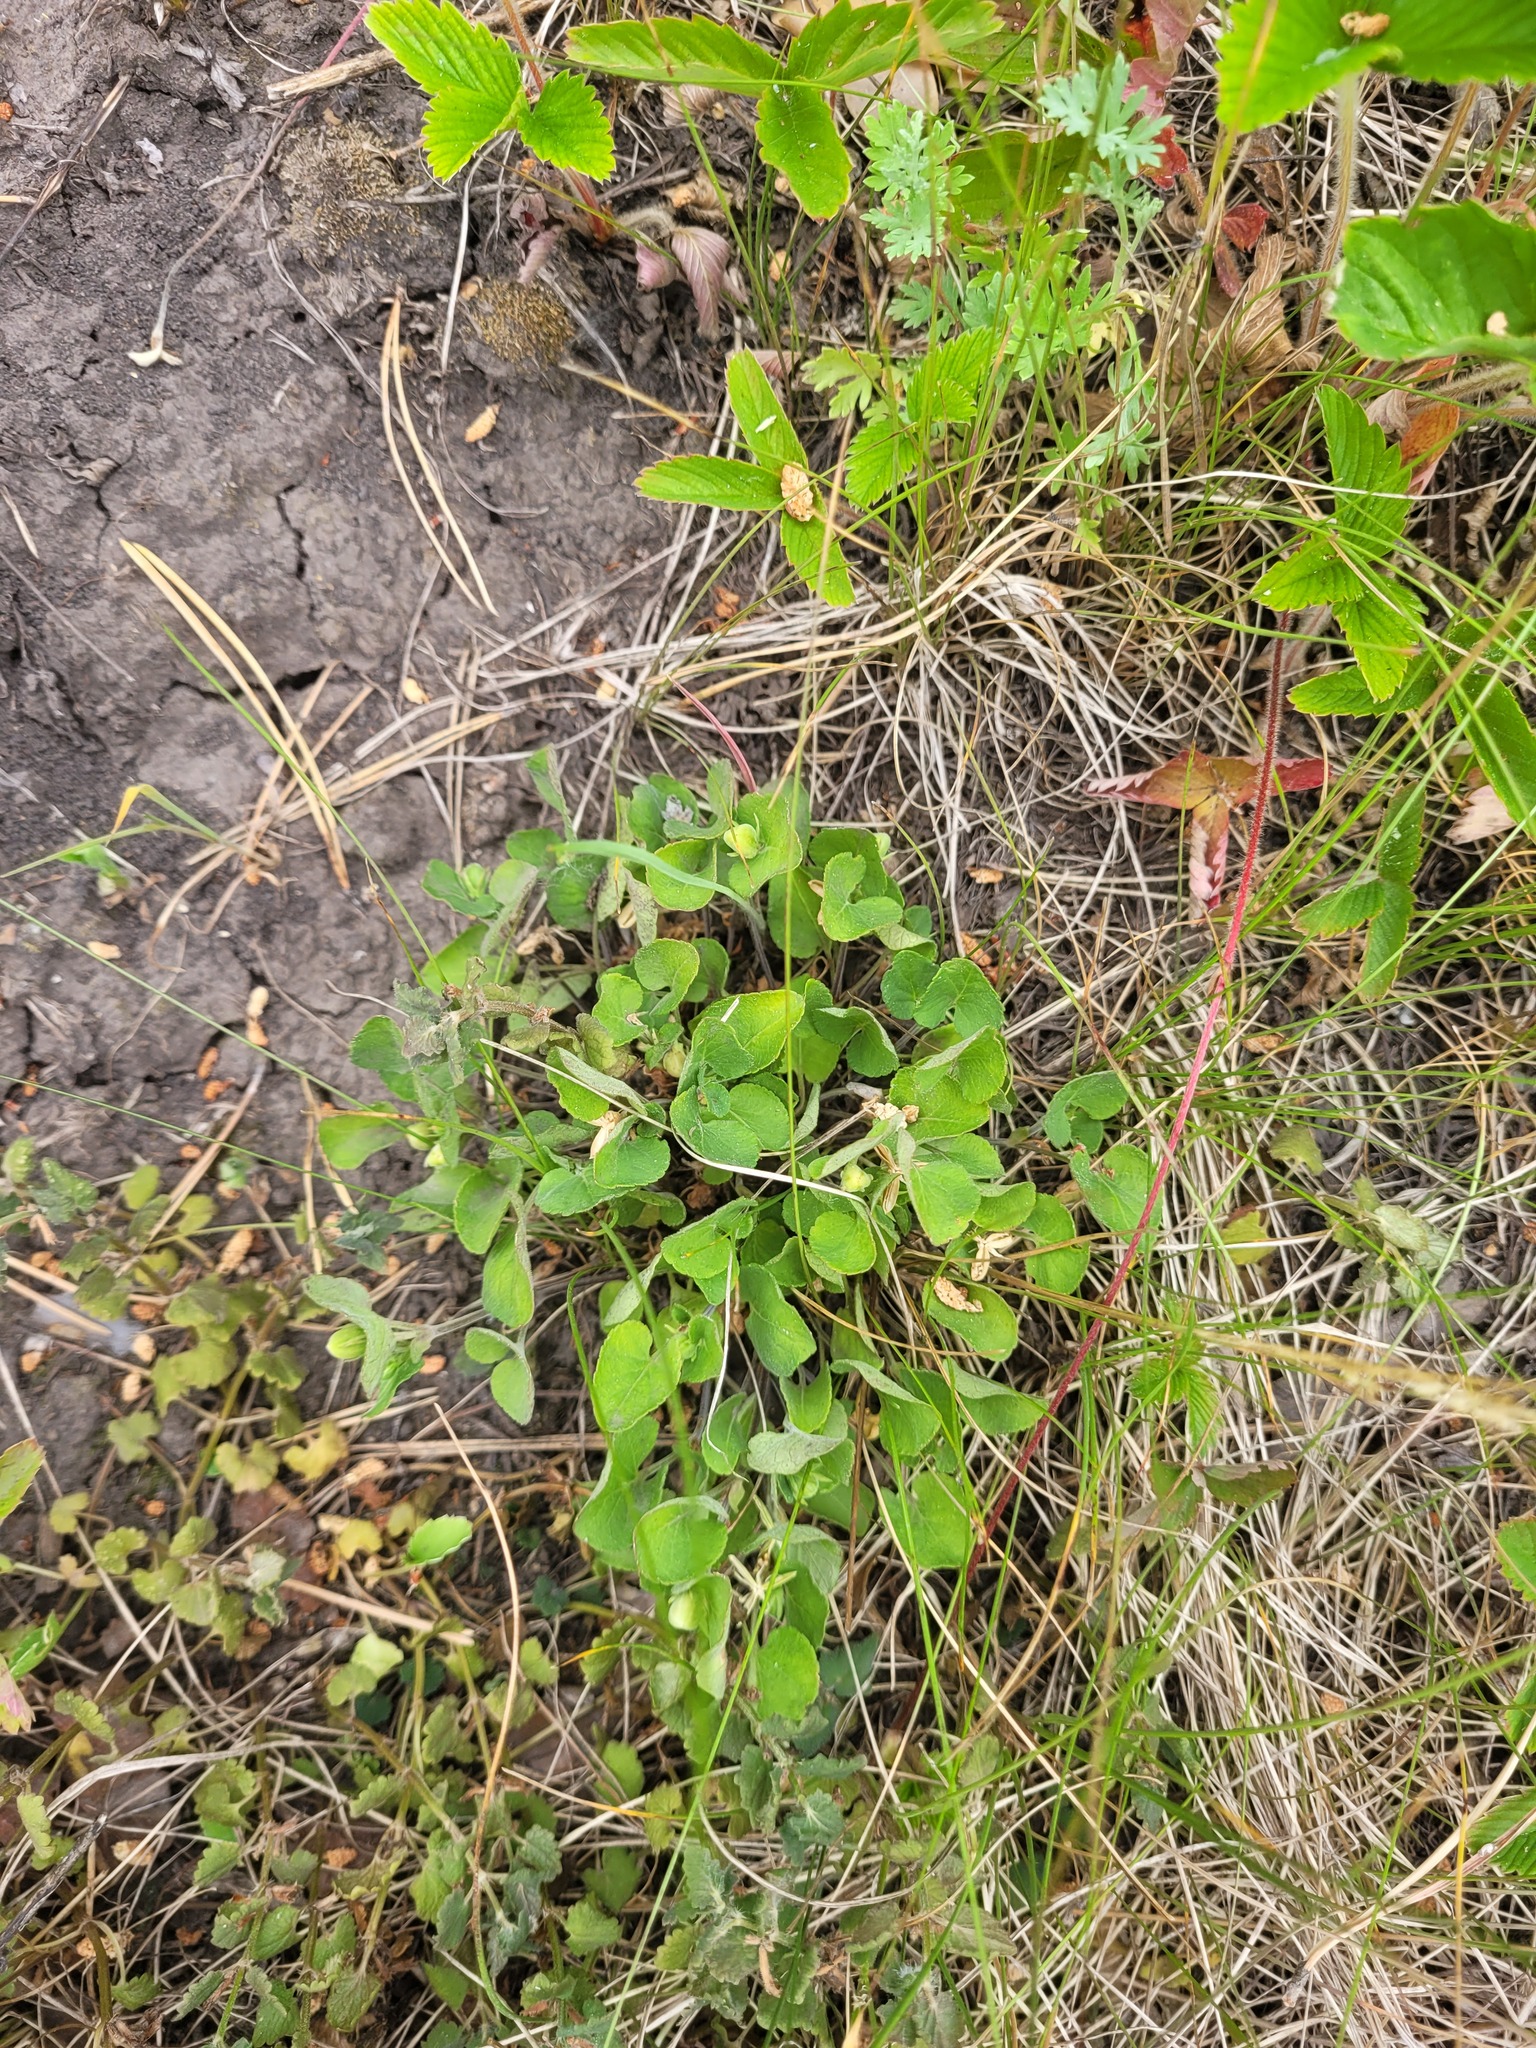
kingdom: Plantae
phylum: Tracheophyta
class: Magnoliopsida
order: Malpighiales
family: Violaceae
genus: Viola
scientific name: Viola rupestris
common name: Teesdale violet
